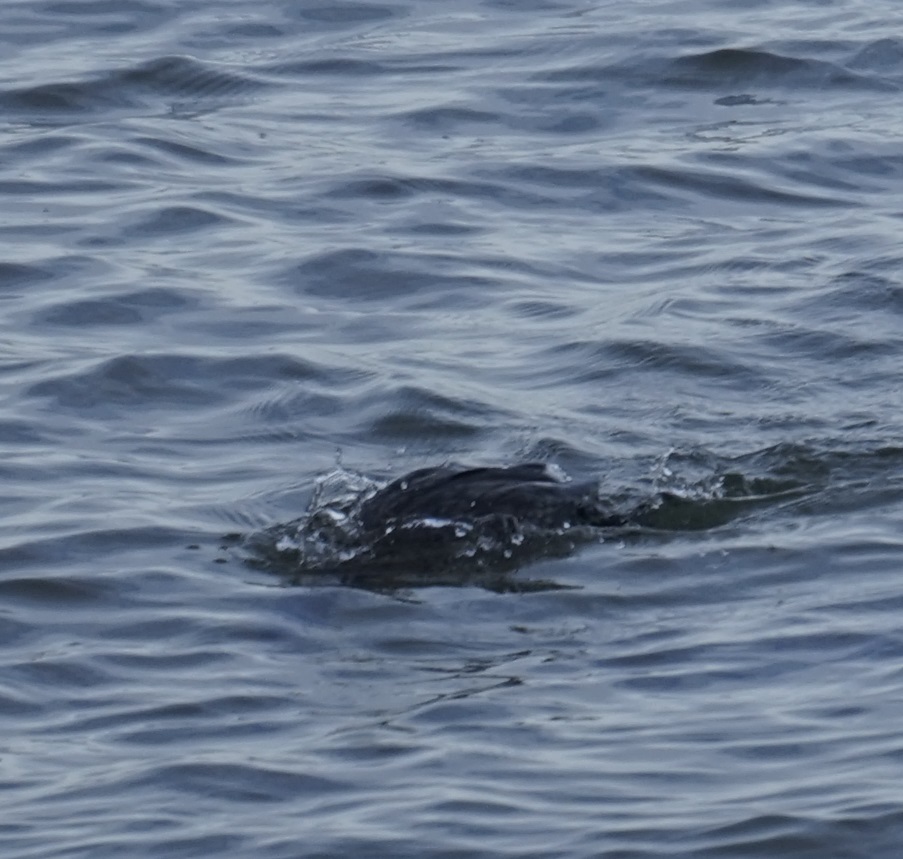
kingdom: Animalia
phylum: Chordata
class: Aves
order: Suliformes
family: Phalacrocoracidae
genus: Phalacrocorax
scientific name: Phalacrocorax sulcirostris
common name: Little black cormorant
